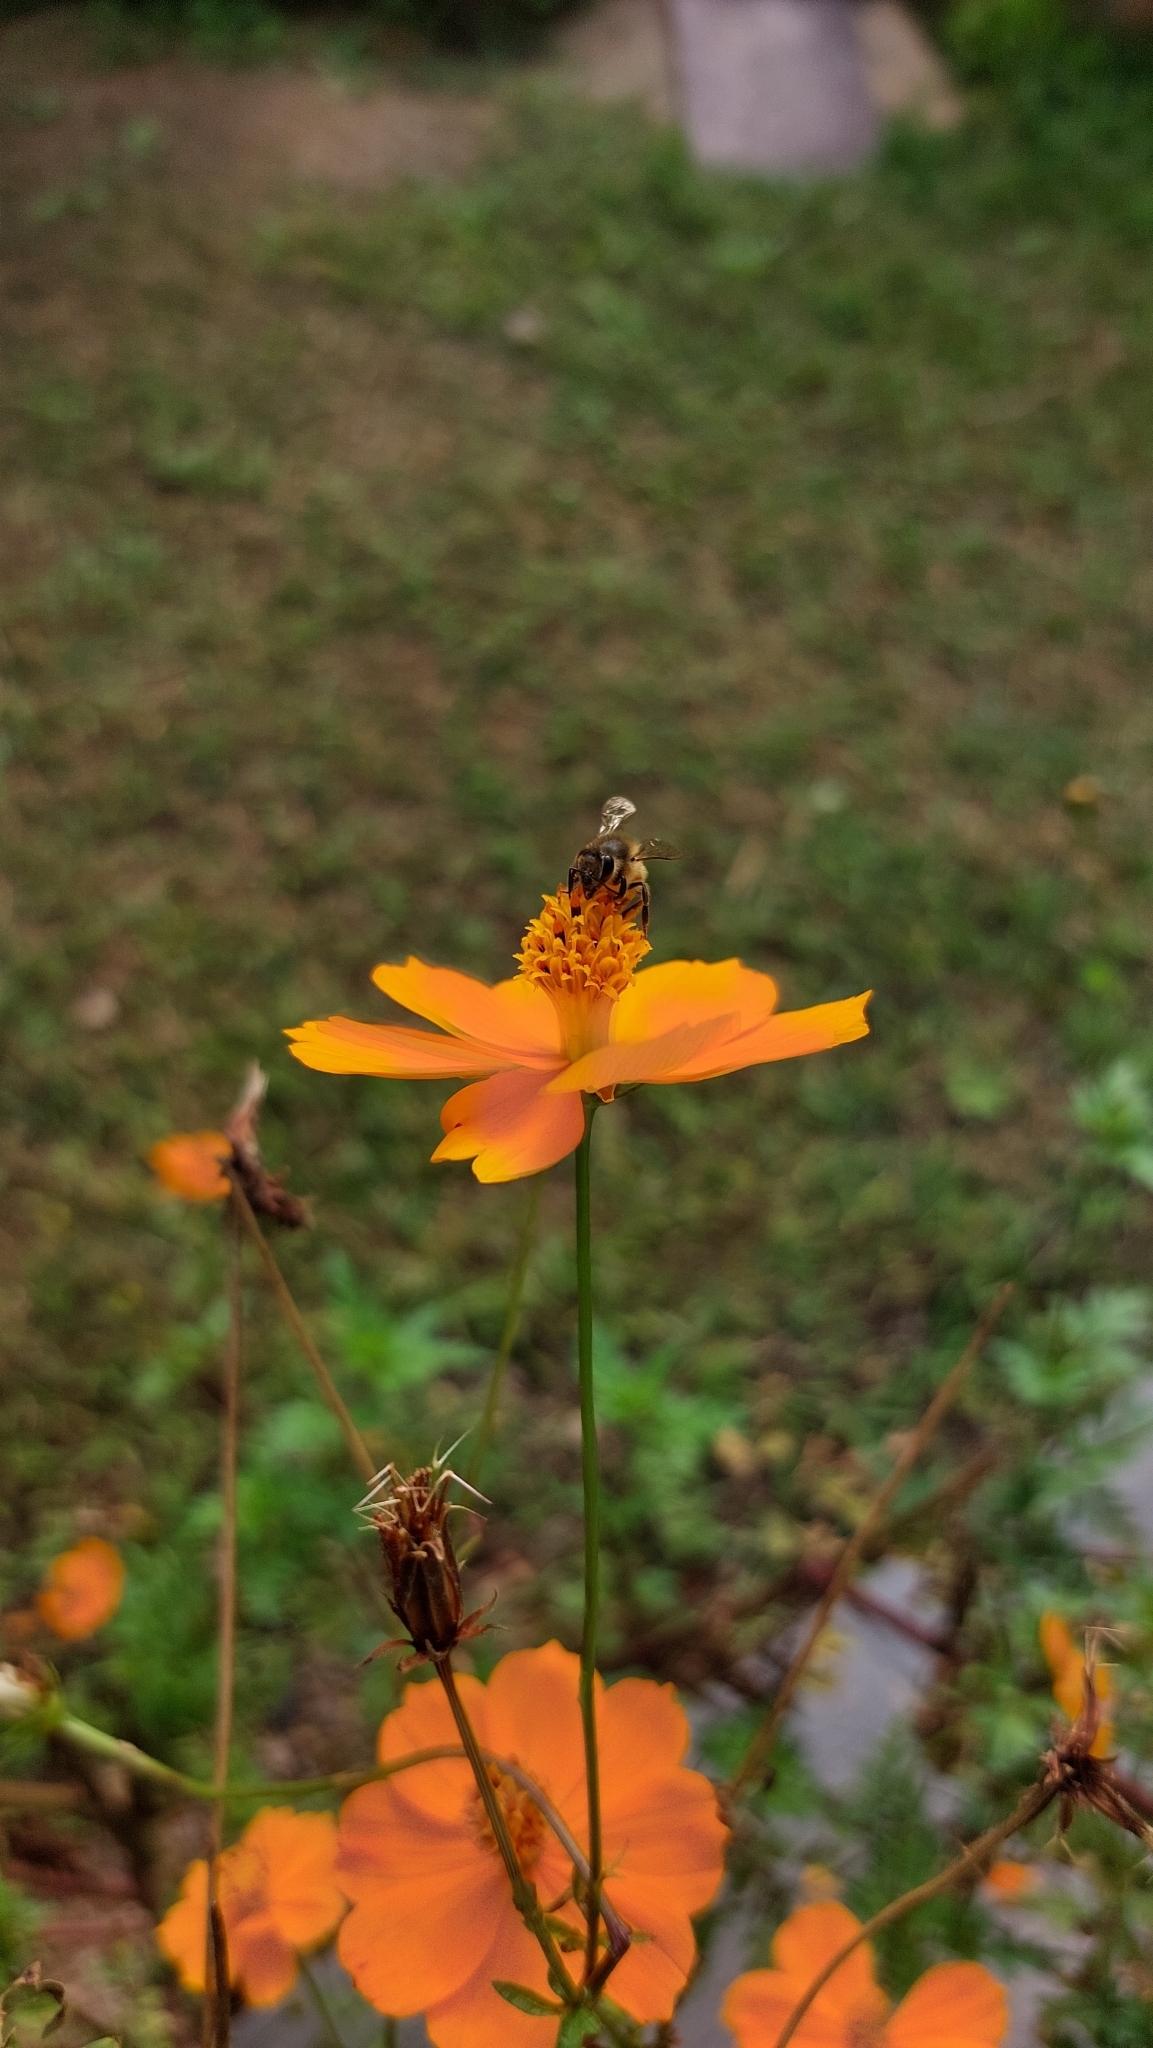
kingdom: Animalia
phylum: Arthropoda
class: Insecta
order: Hymenoptera
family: Apidae
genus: Apis
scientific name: Apis mellifera
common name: Honey bee
